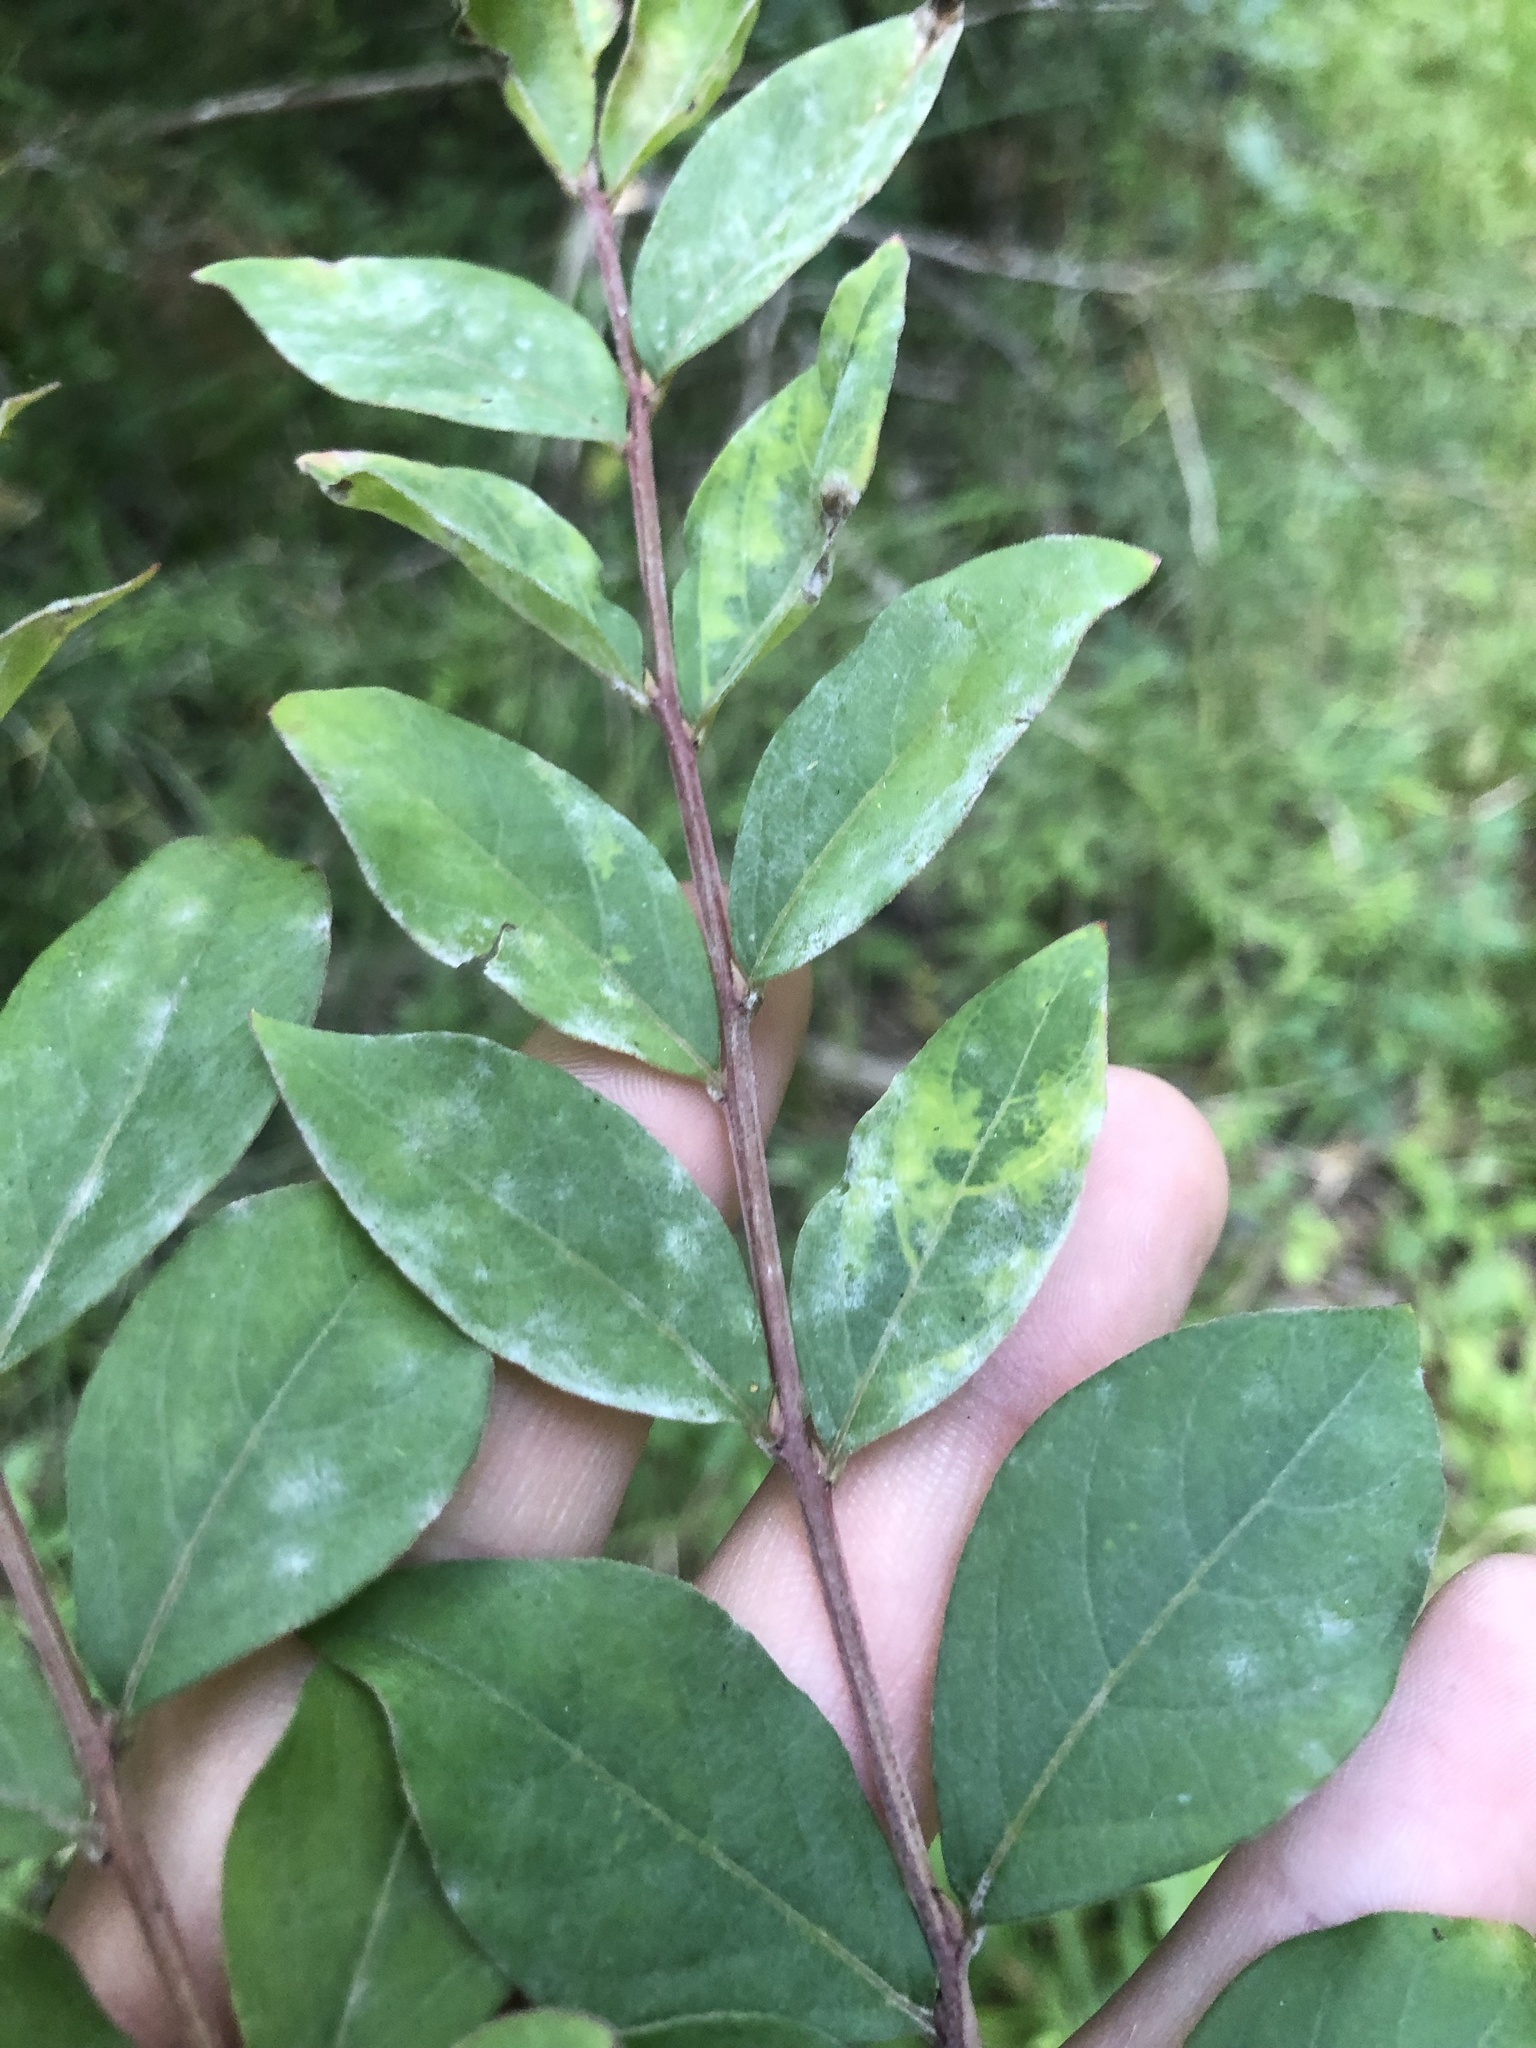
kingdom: Plantae
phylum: Tracheophyta
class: Magnoliopsida
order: Myrtales
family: Lythraceae
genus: Lagerstroemia
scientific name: Lagerstroemia indica
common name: Crape-myrtle
